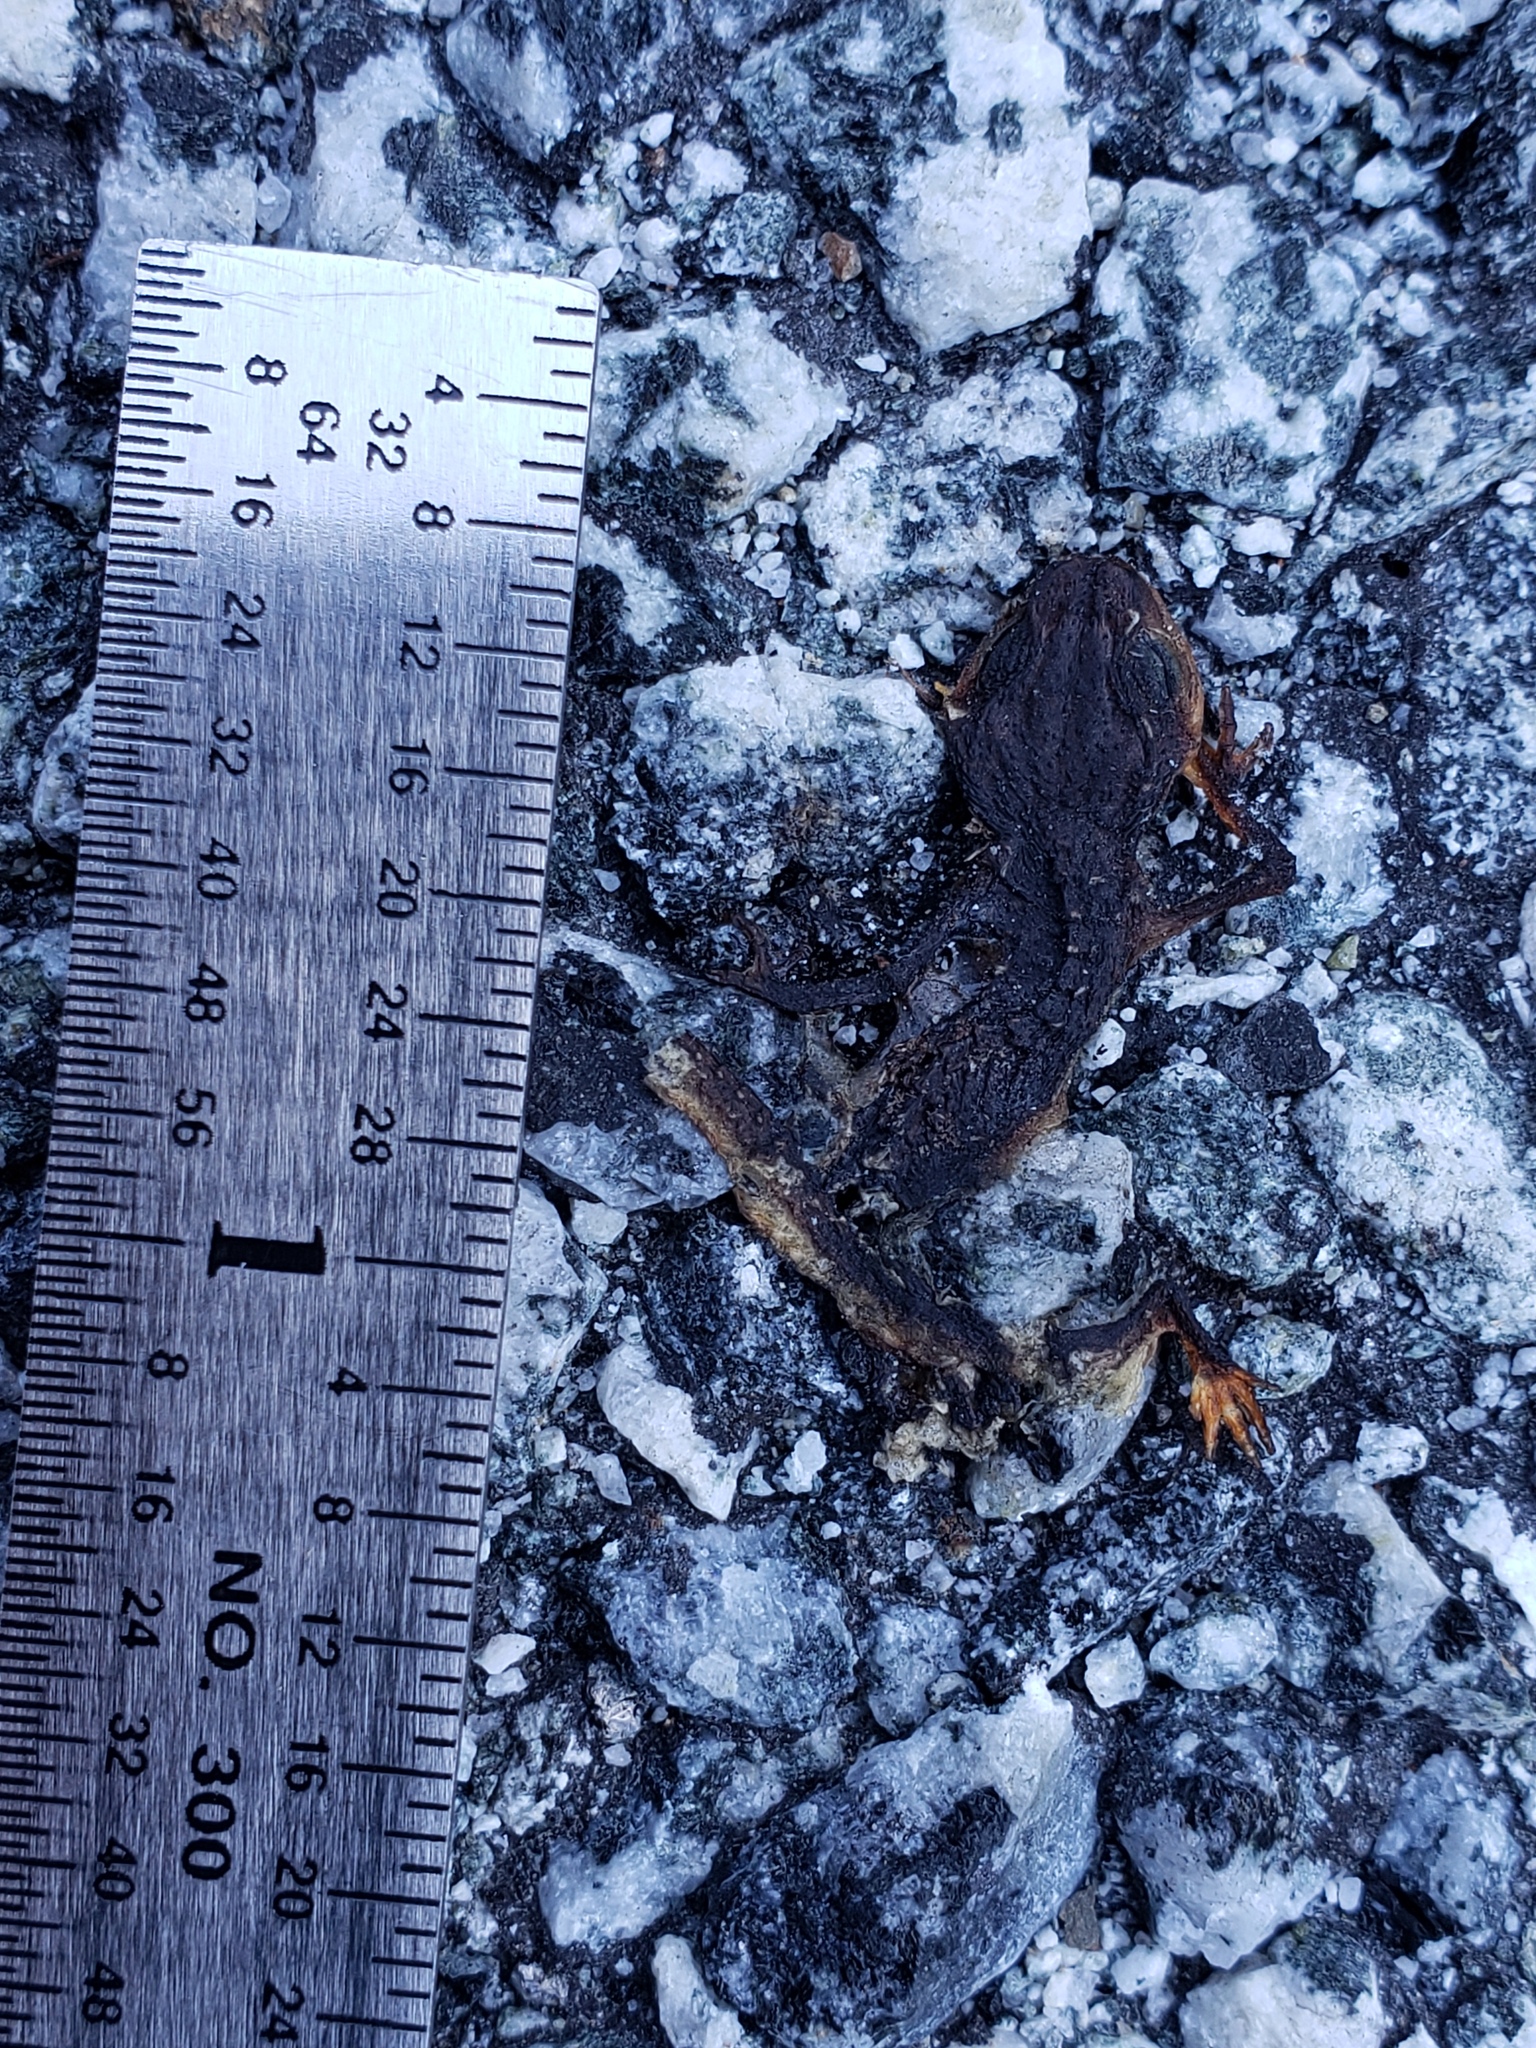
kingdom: Animalia
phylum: Chordata
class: Amphibia
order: Caudata
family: Salamandridae
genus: Taricha
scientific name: Taricha
